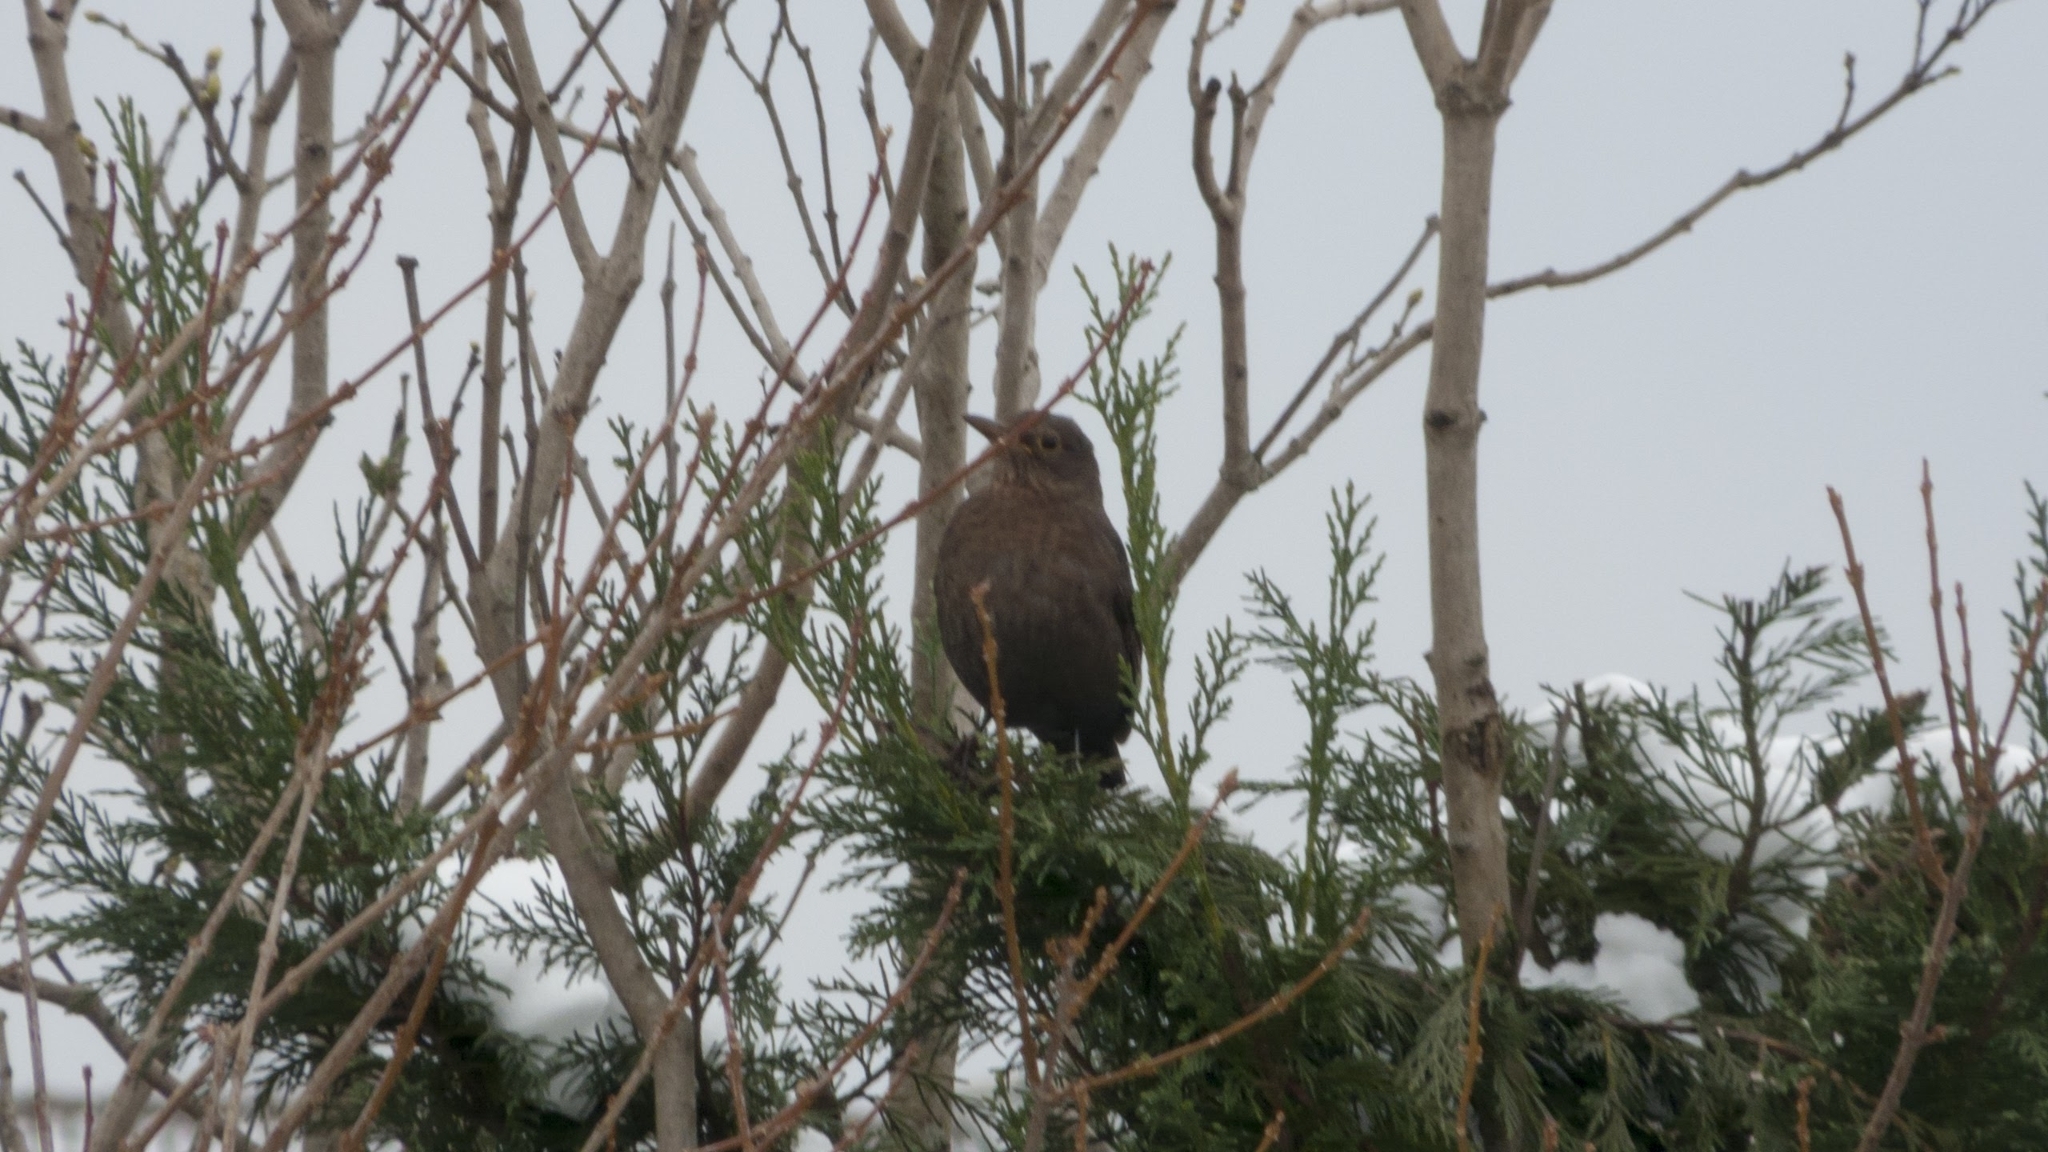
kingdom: Animalia
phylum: Chordata
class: Aves
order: Passeriformes
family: Turdidae
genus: Turdus
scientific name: Turdus merula
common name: Common blackbird
